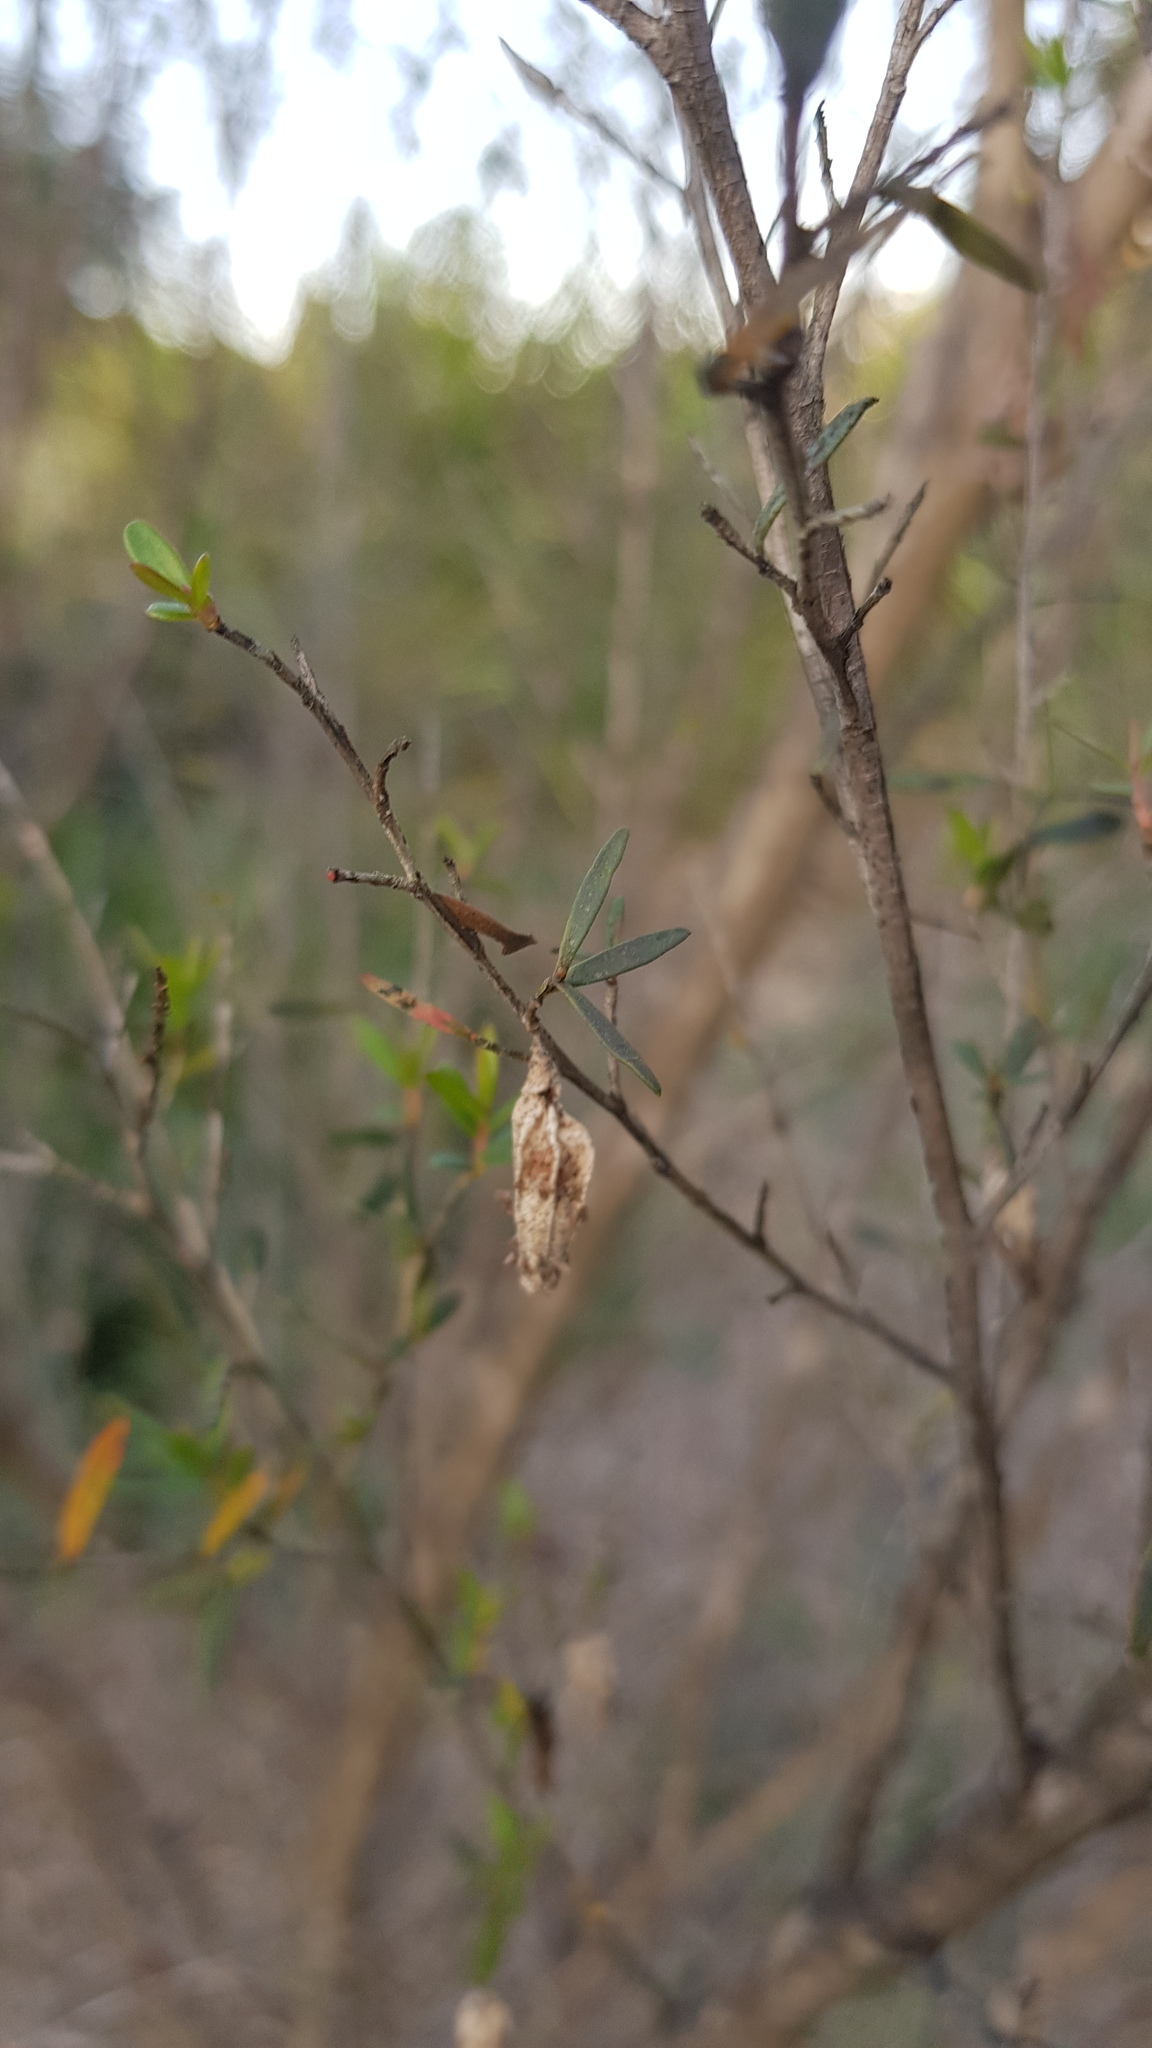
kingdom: Animalia
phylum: Arthropoda
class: Insecta
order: Lepidoptera
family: Psychidae
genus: Hyalarcta
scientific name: Hyalarcta nigrescens
